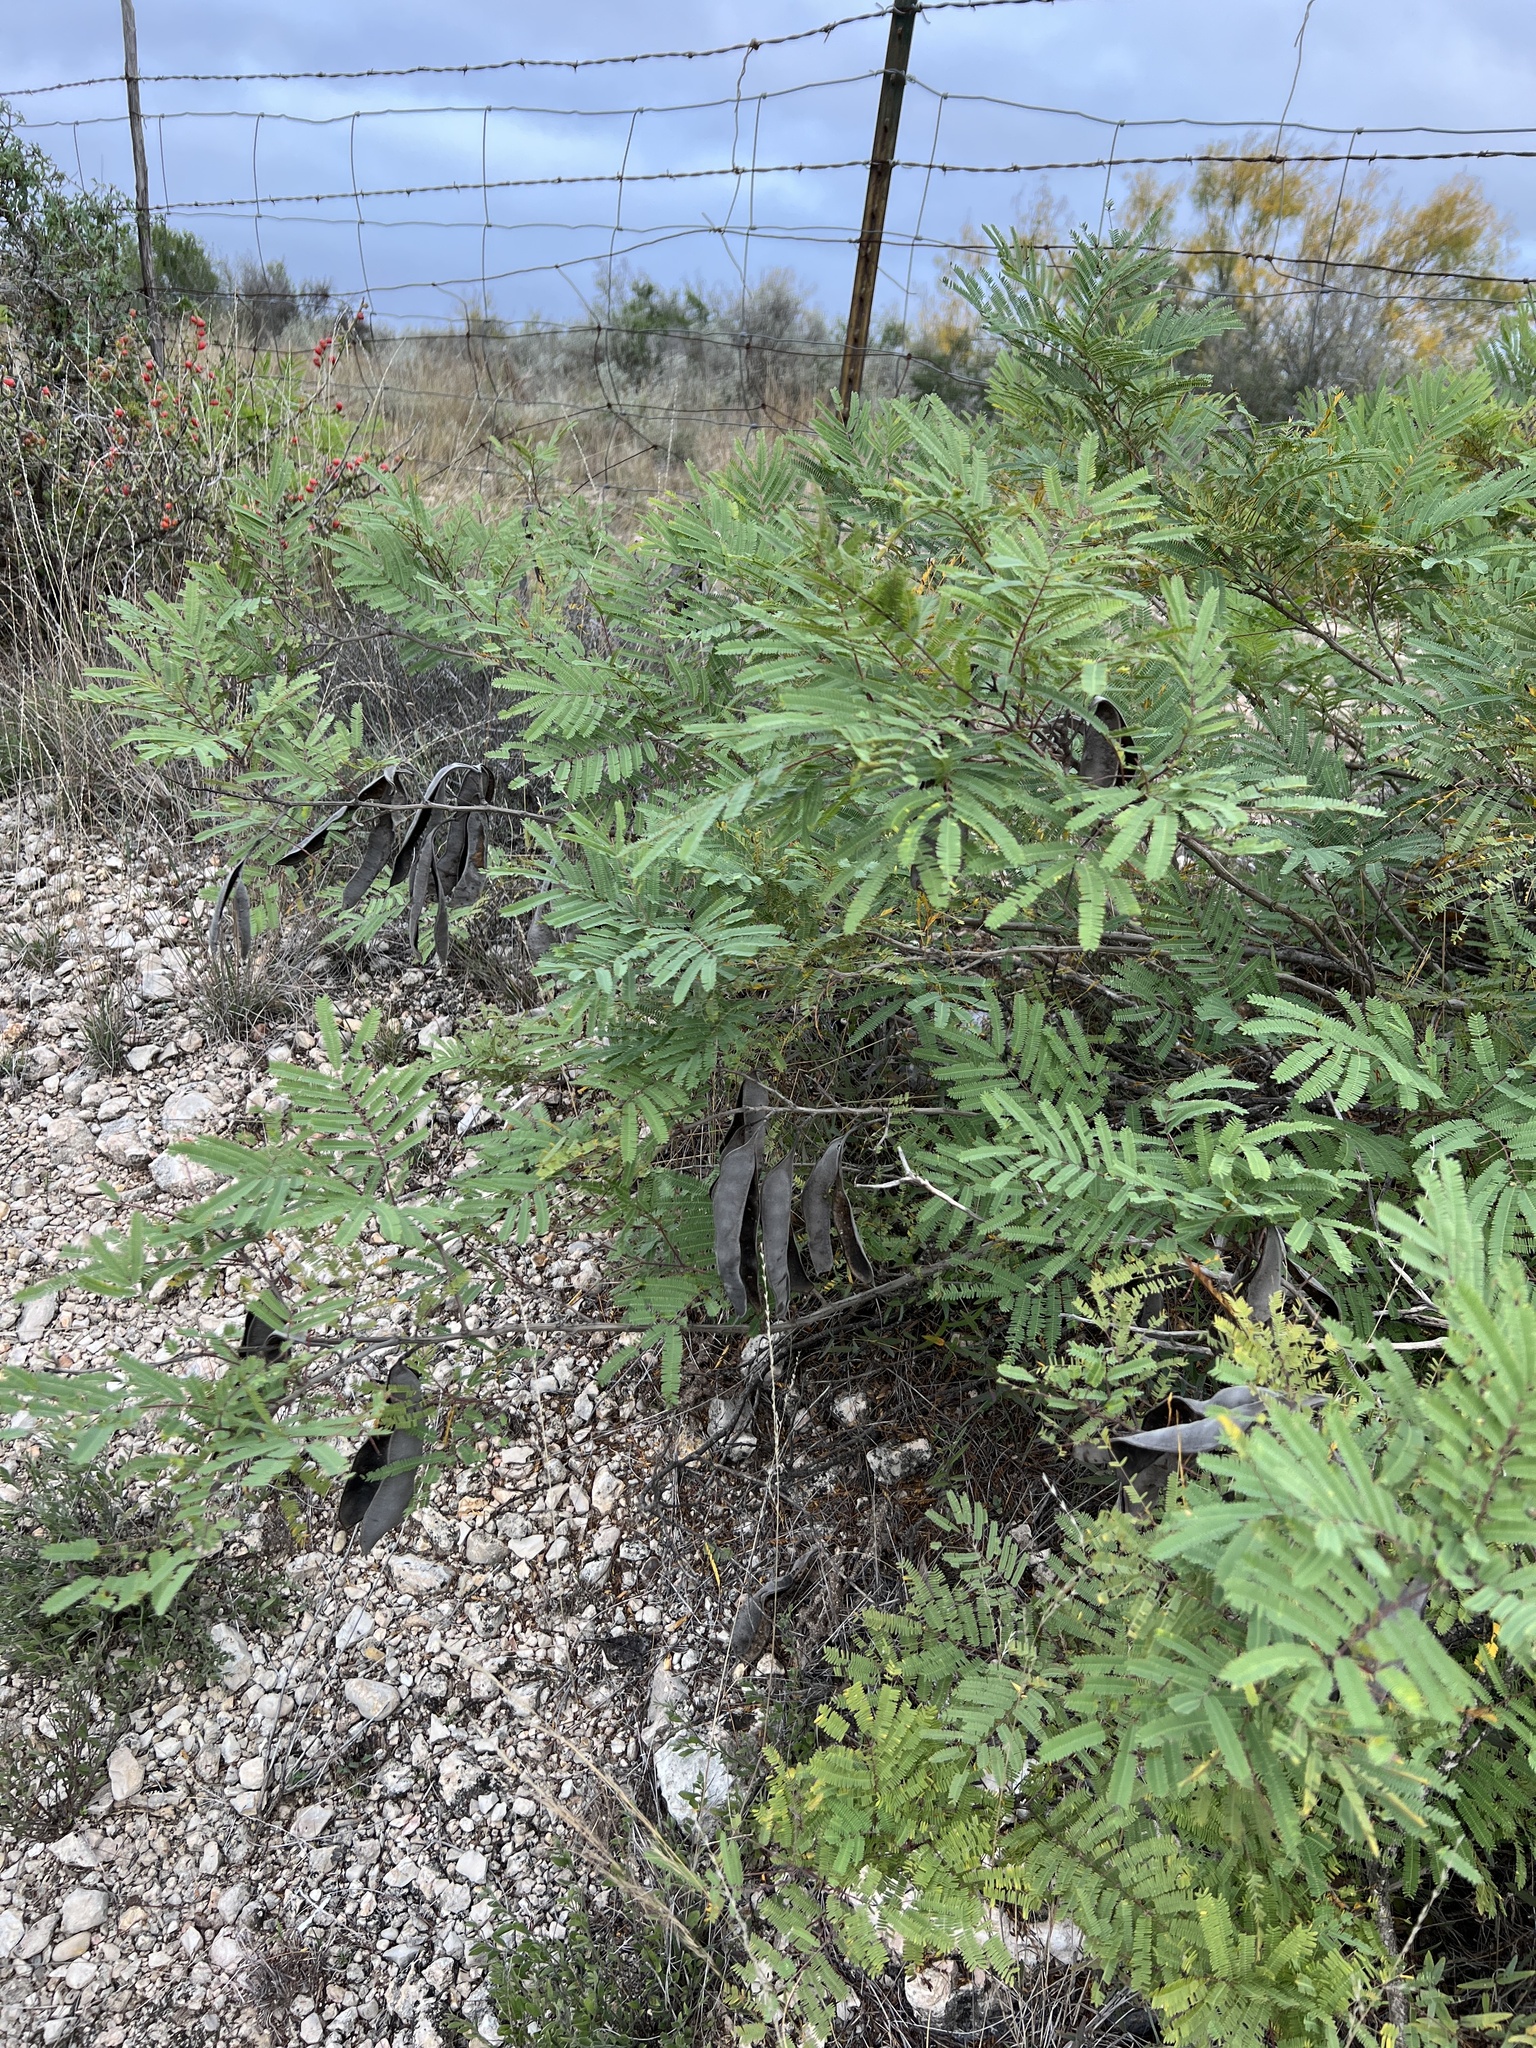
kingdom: Plantae
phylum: Tracheophyta
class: Magnoliopsida
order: Fabales
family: Fabaceae
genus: Senegalia
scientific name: Senegalia berlandieri
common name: Berlandier acacia
